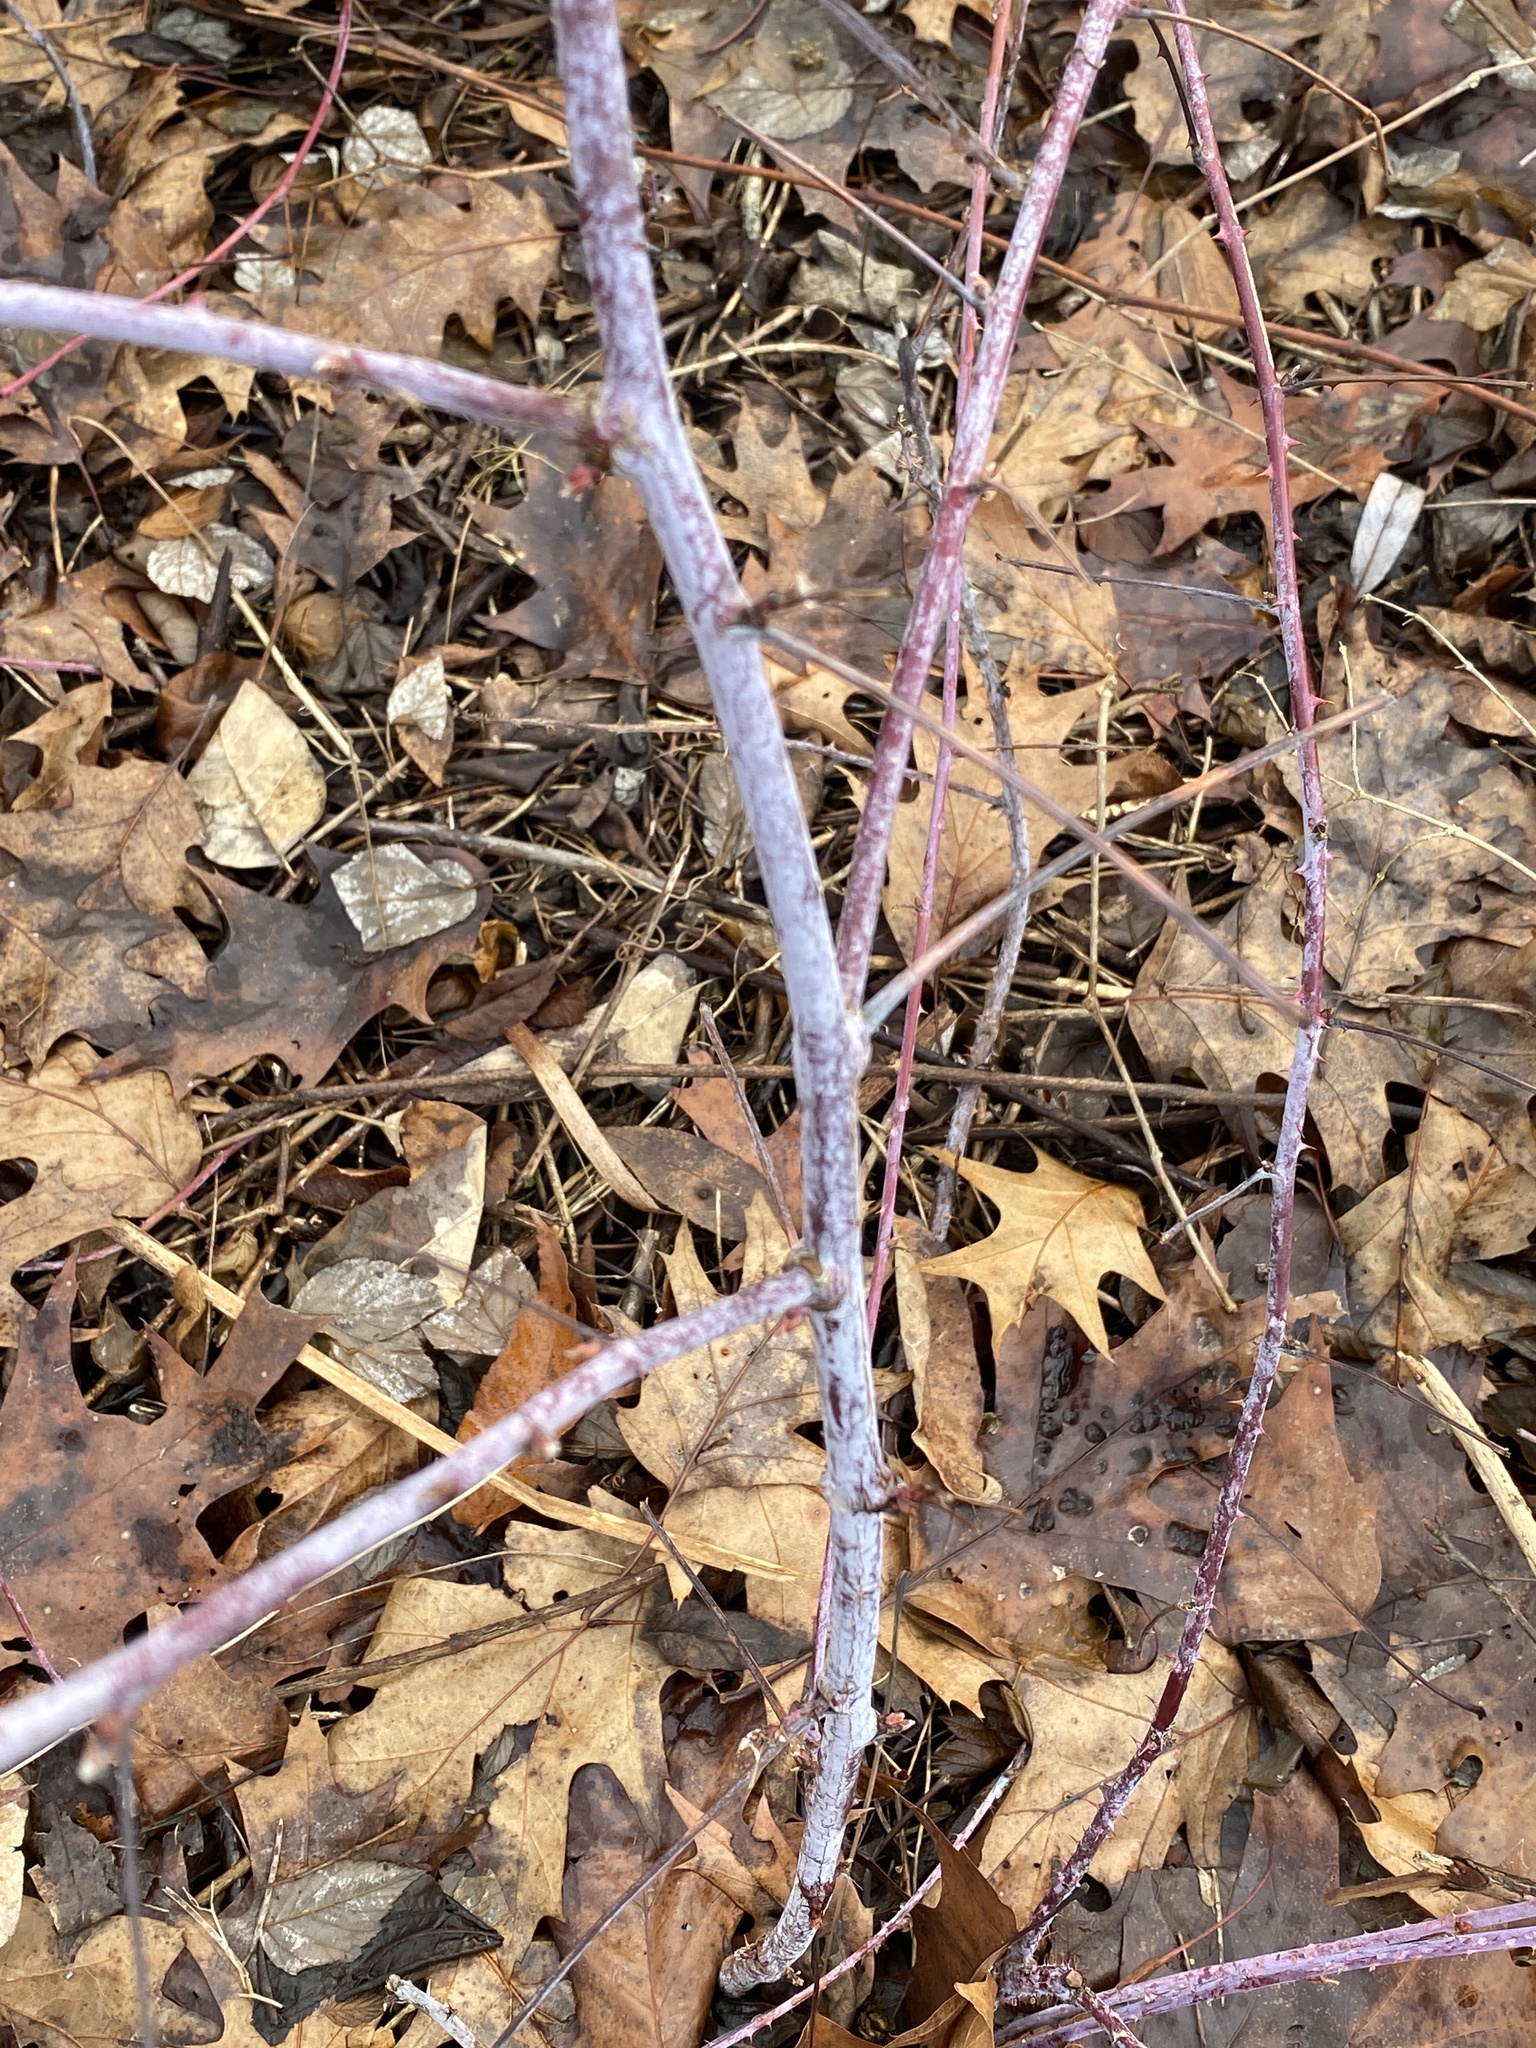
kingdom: Plantae
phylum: Tracheophyta
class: Magnoliopsida
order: Rosales
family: Rosaceae
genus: Rubus
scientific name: Rubus occidentalis
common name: Black raspberry
